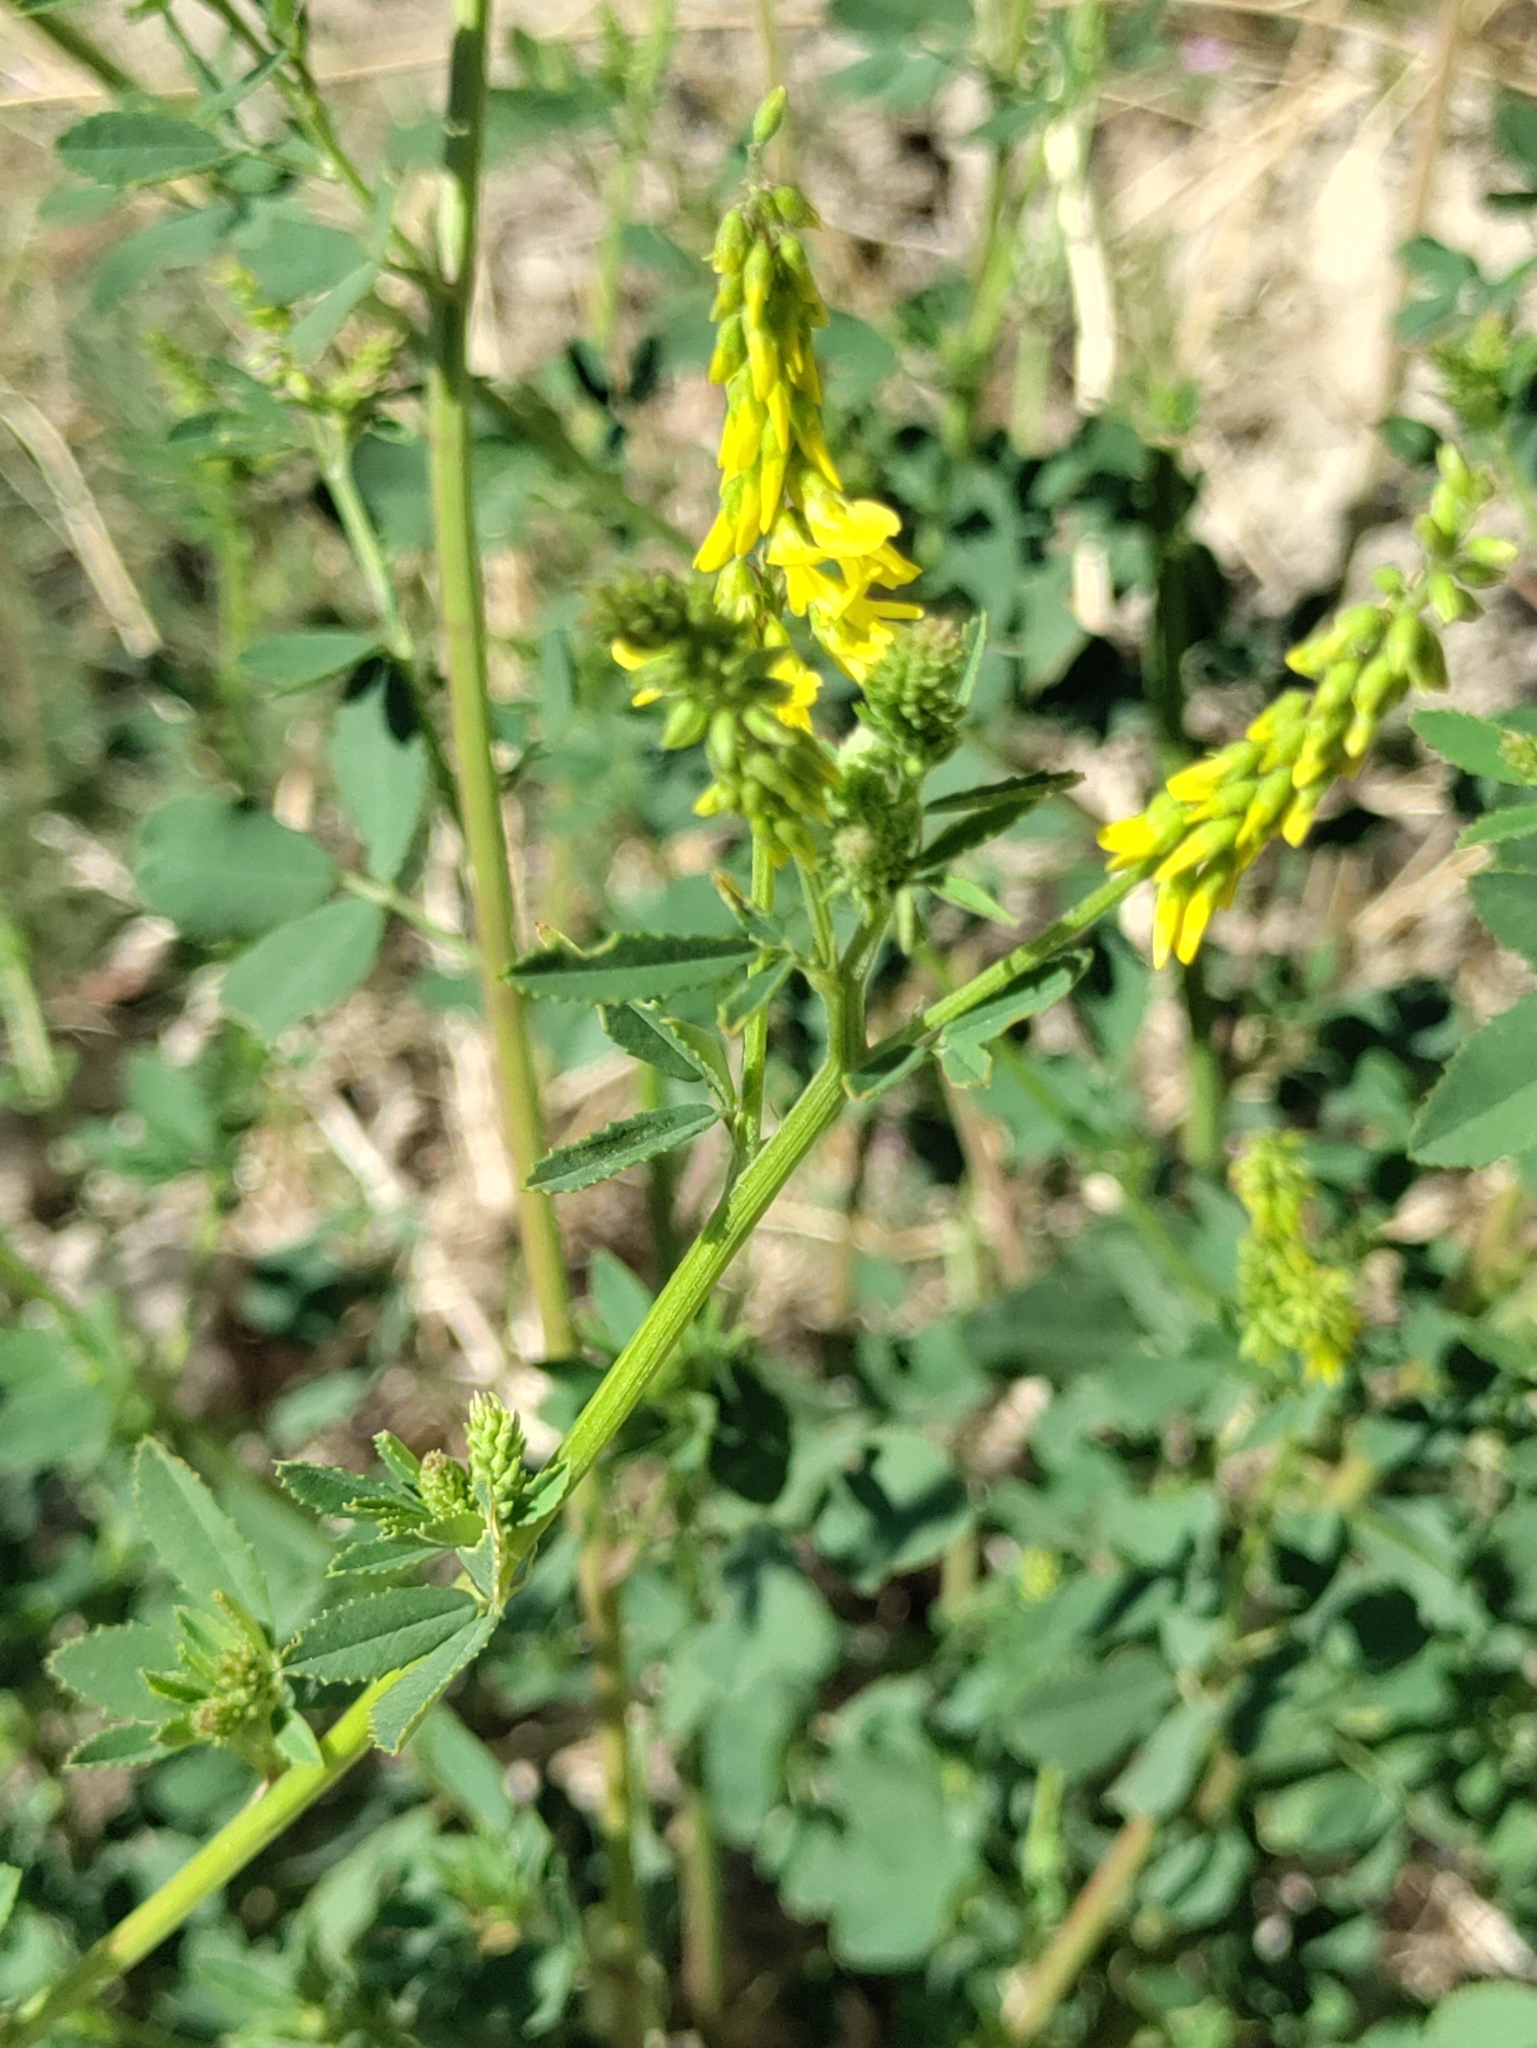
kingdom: Plantae
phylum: Tracheophyta
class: Magnoliopsida
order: Fabales
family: Fabaceae
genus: Melilotus
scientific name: Melilotus officinalis
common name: Sweetclover
